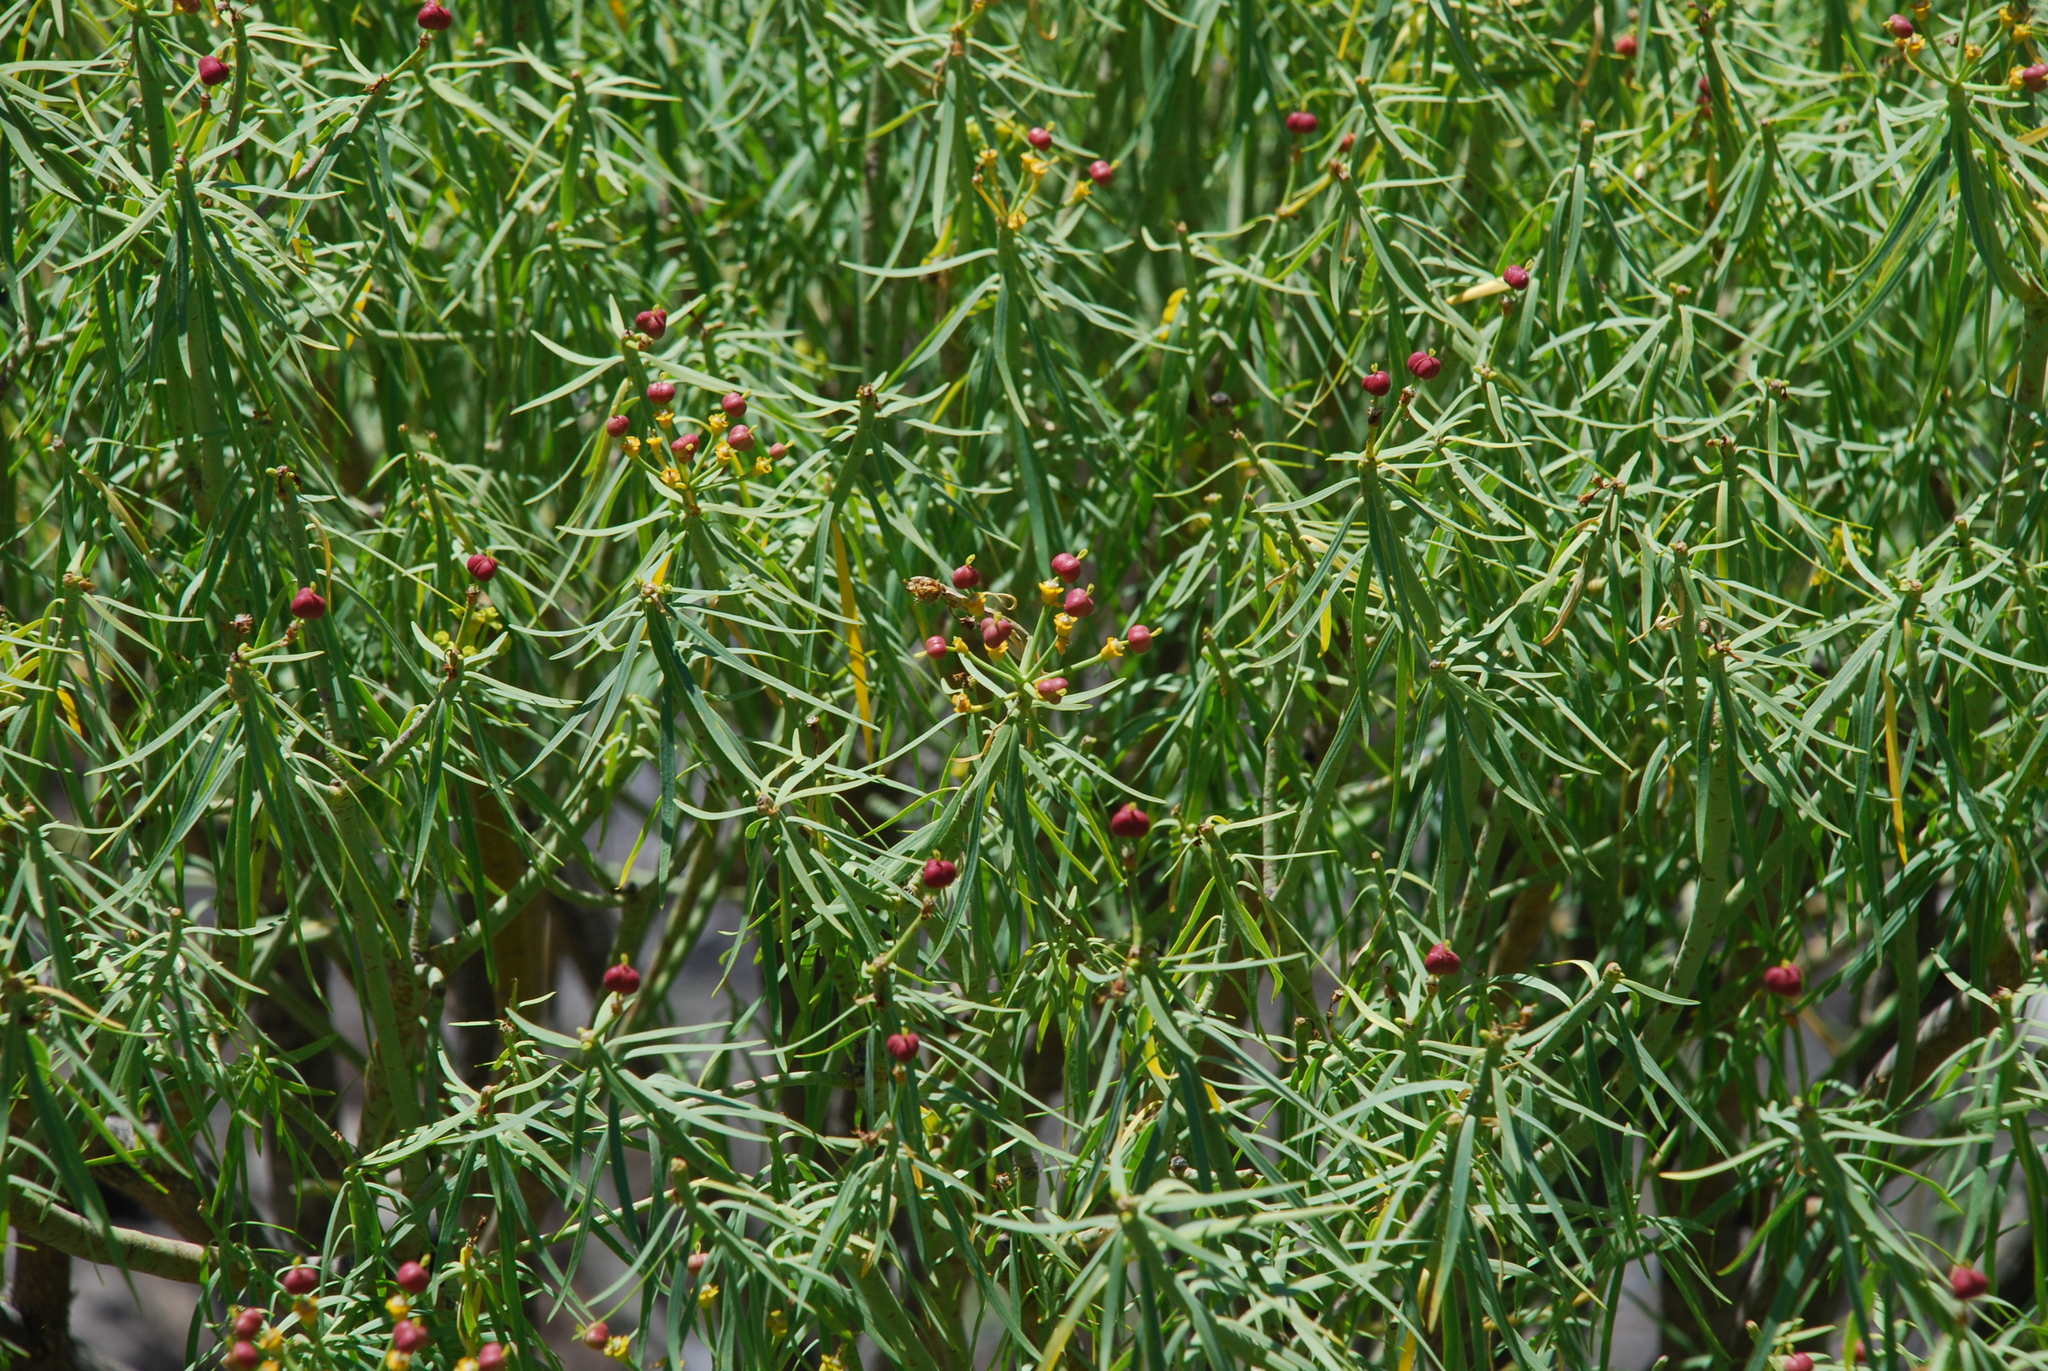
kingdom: Plantae
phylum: Tracheophyta
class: Magnoliopsida
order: Malpighiales
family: Euphorbiaceae
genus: Euphorbia
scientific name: Euphorbia lamarckii
